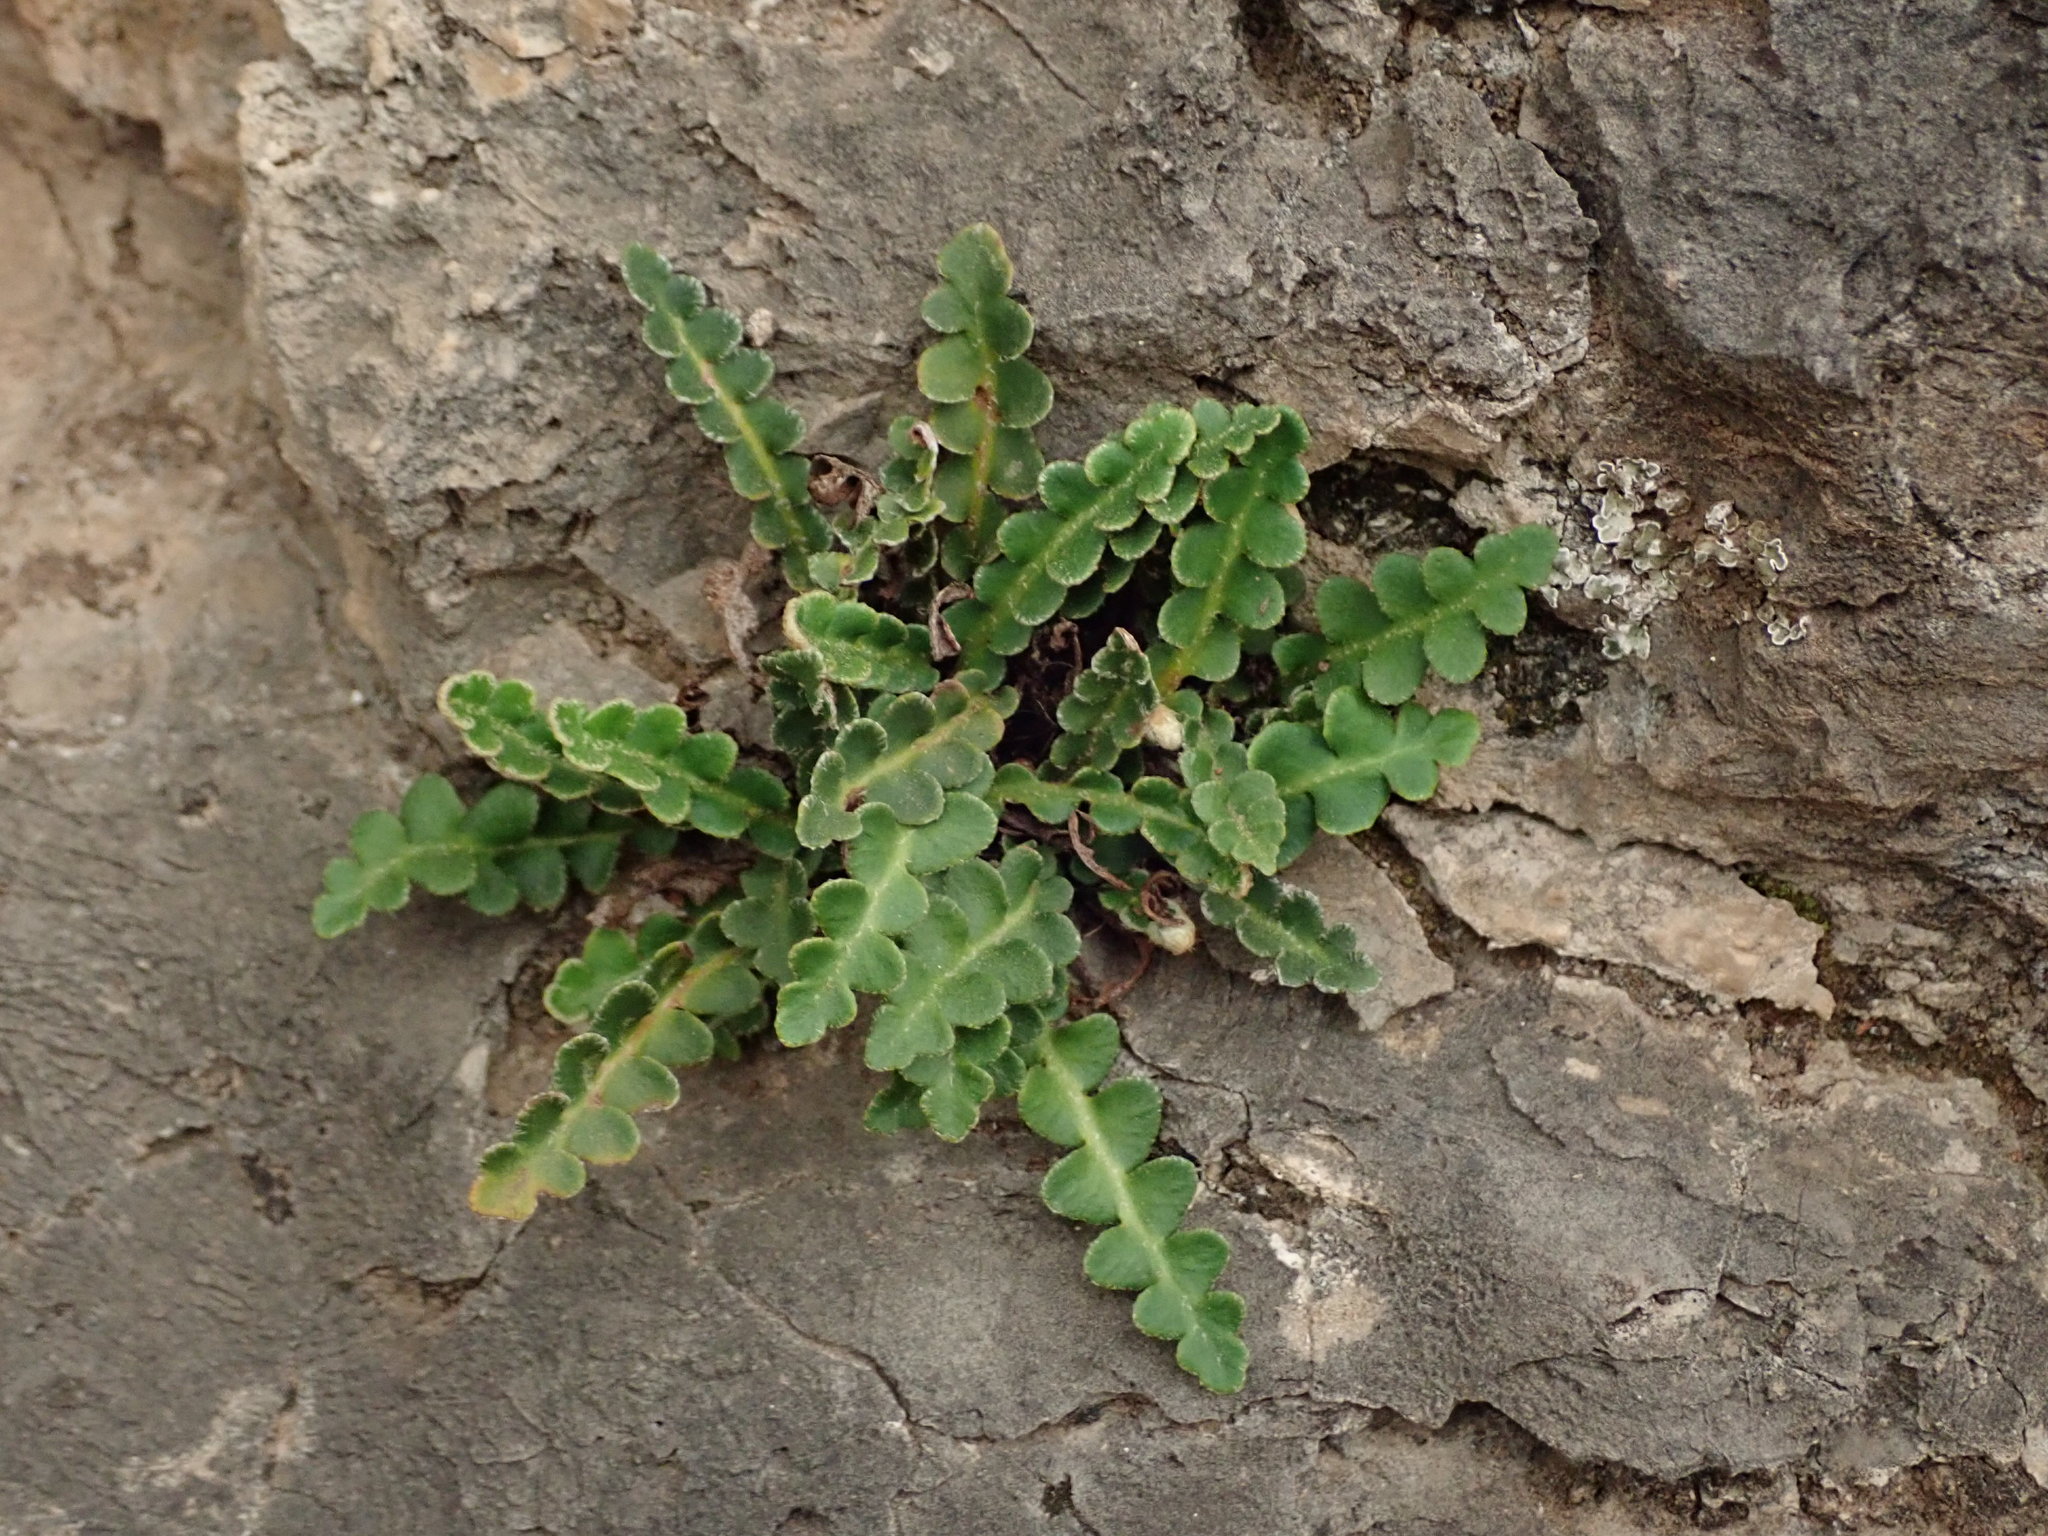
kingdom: Plantae
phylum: Tracheophyta
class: Polypodiopsida
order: Polypodiales
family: Aspleniaceae
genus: Asplenium
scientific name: Asplenium ceterach
